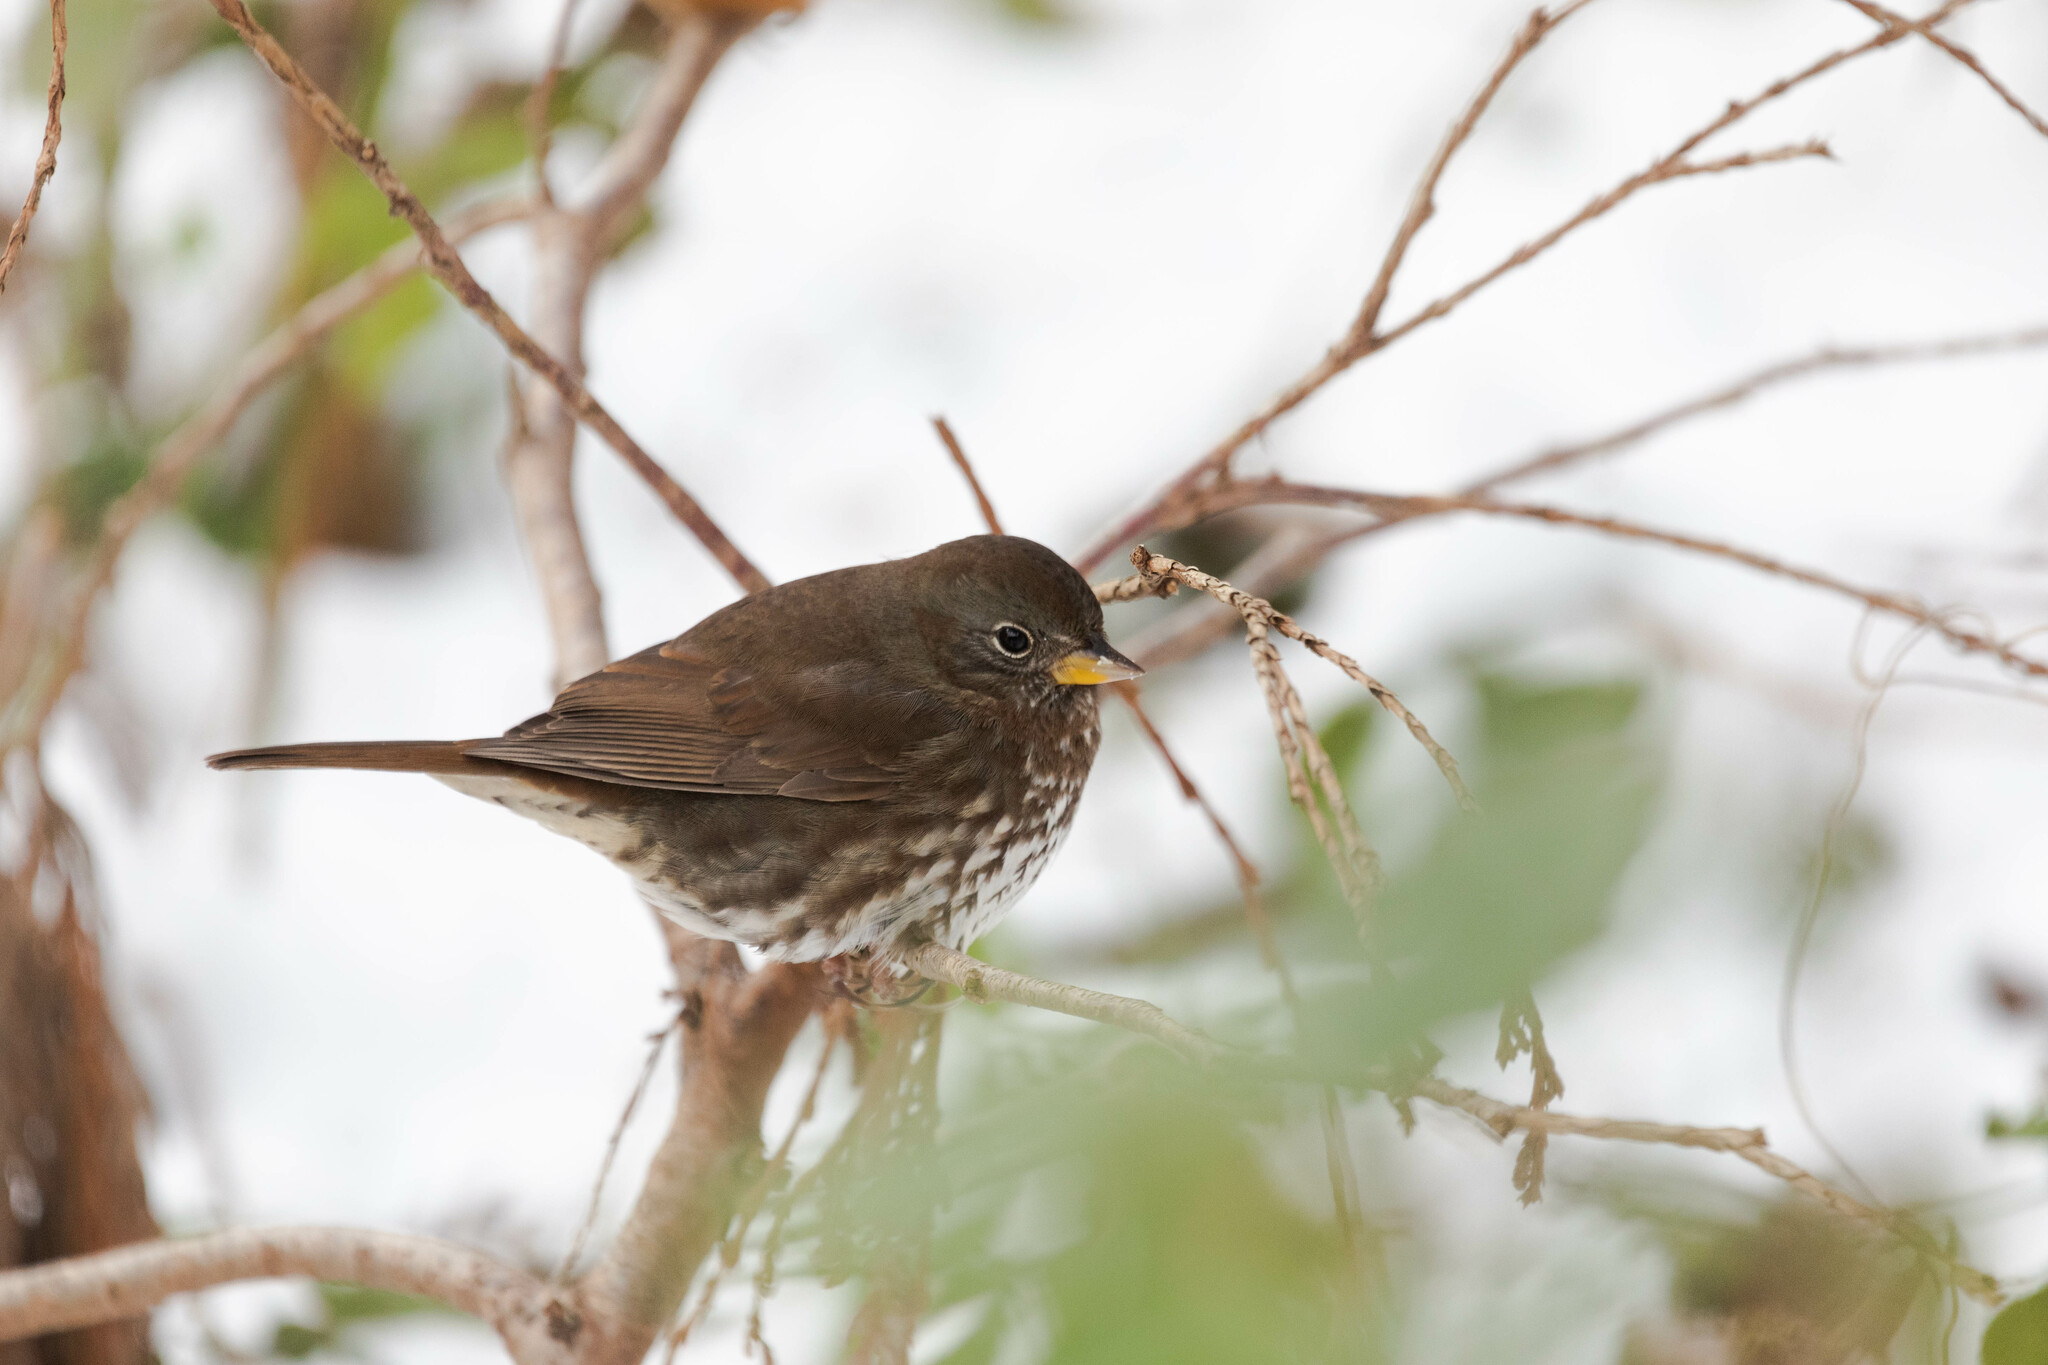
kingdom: Animalia
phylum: Chordata
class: Aves
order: Passeriformes
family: Passerellidae
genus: Passerella
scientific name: Passerella iliaca
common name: Fox sparrow
